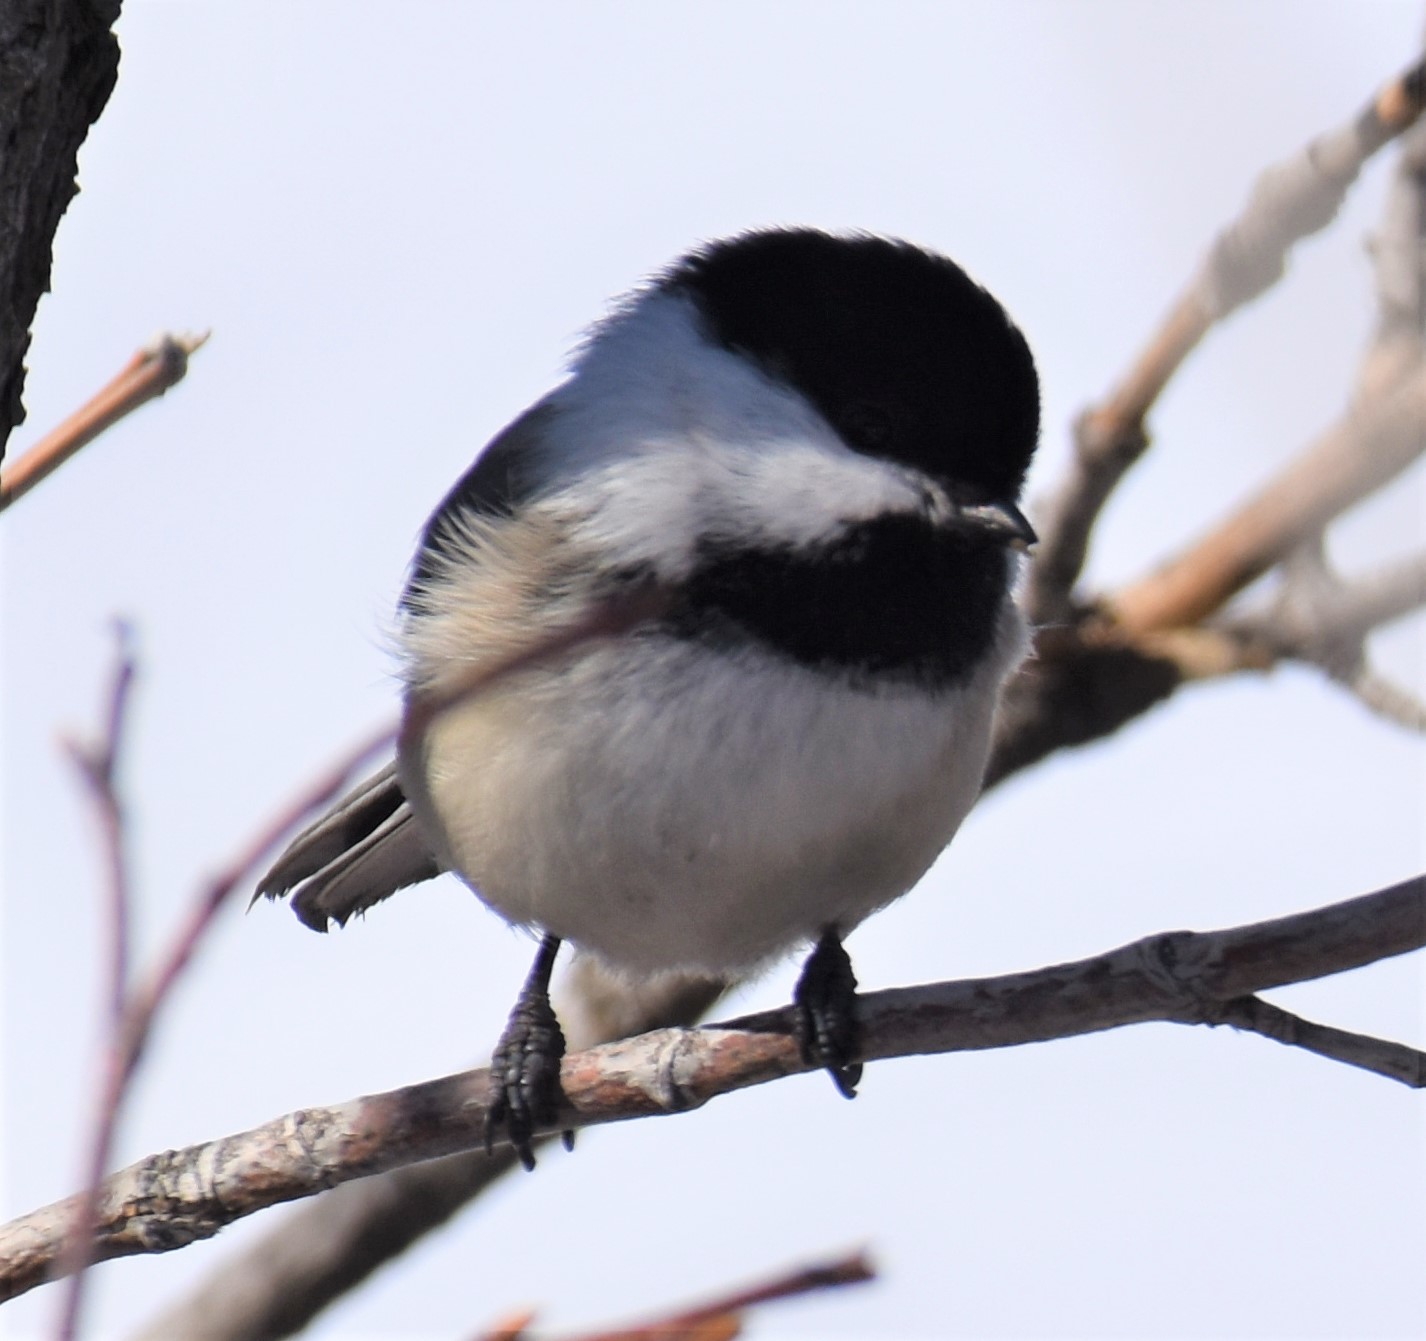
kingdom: Animalia
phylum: Chordata
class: Aves
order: Passeriformes
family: Paridae
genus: Poecile
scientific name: Poecile atricapillus
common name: Black-capped chickadee
